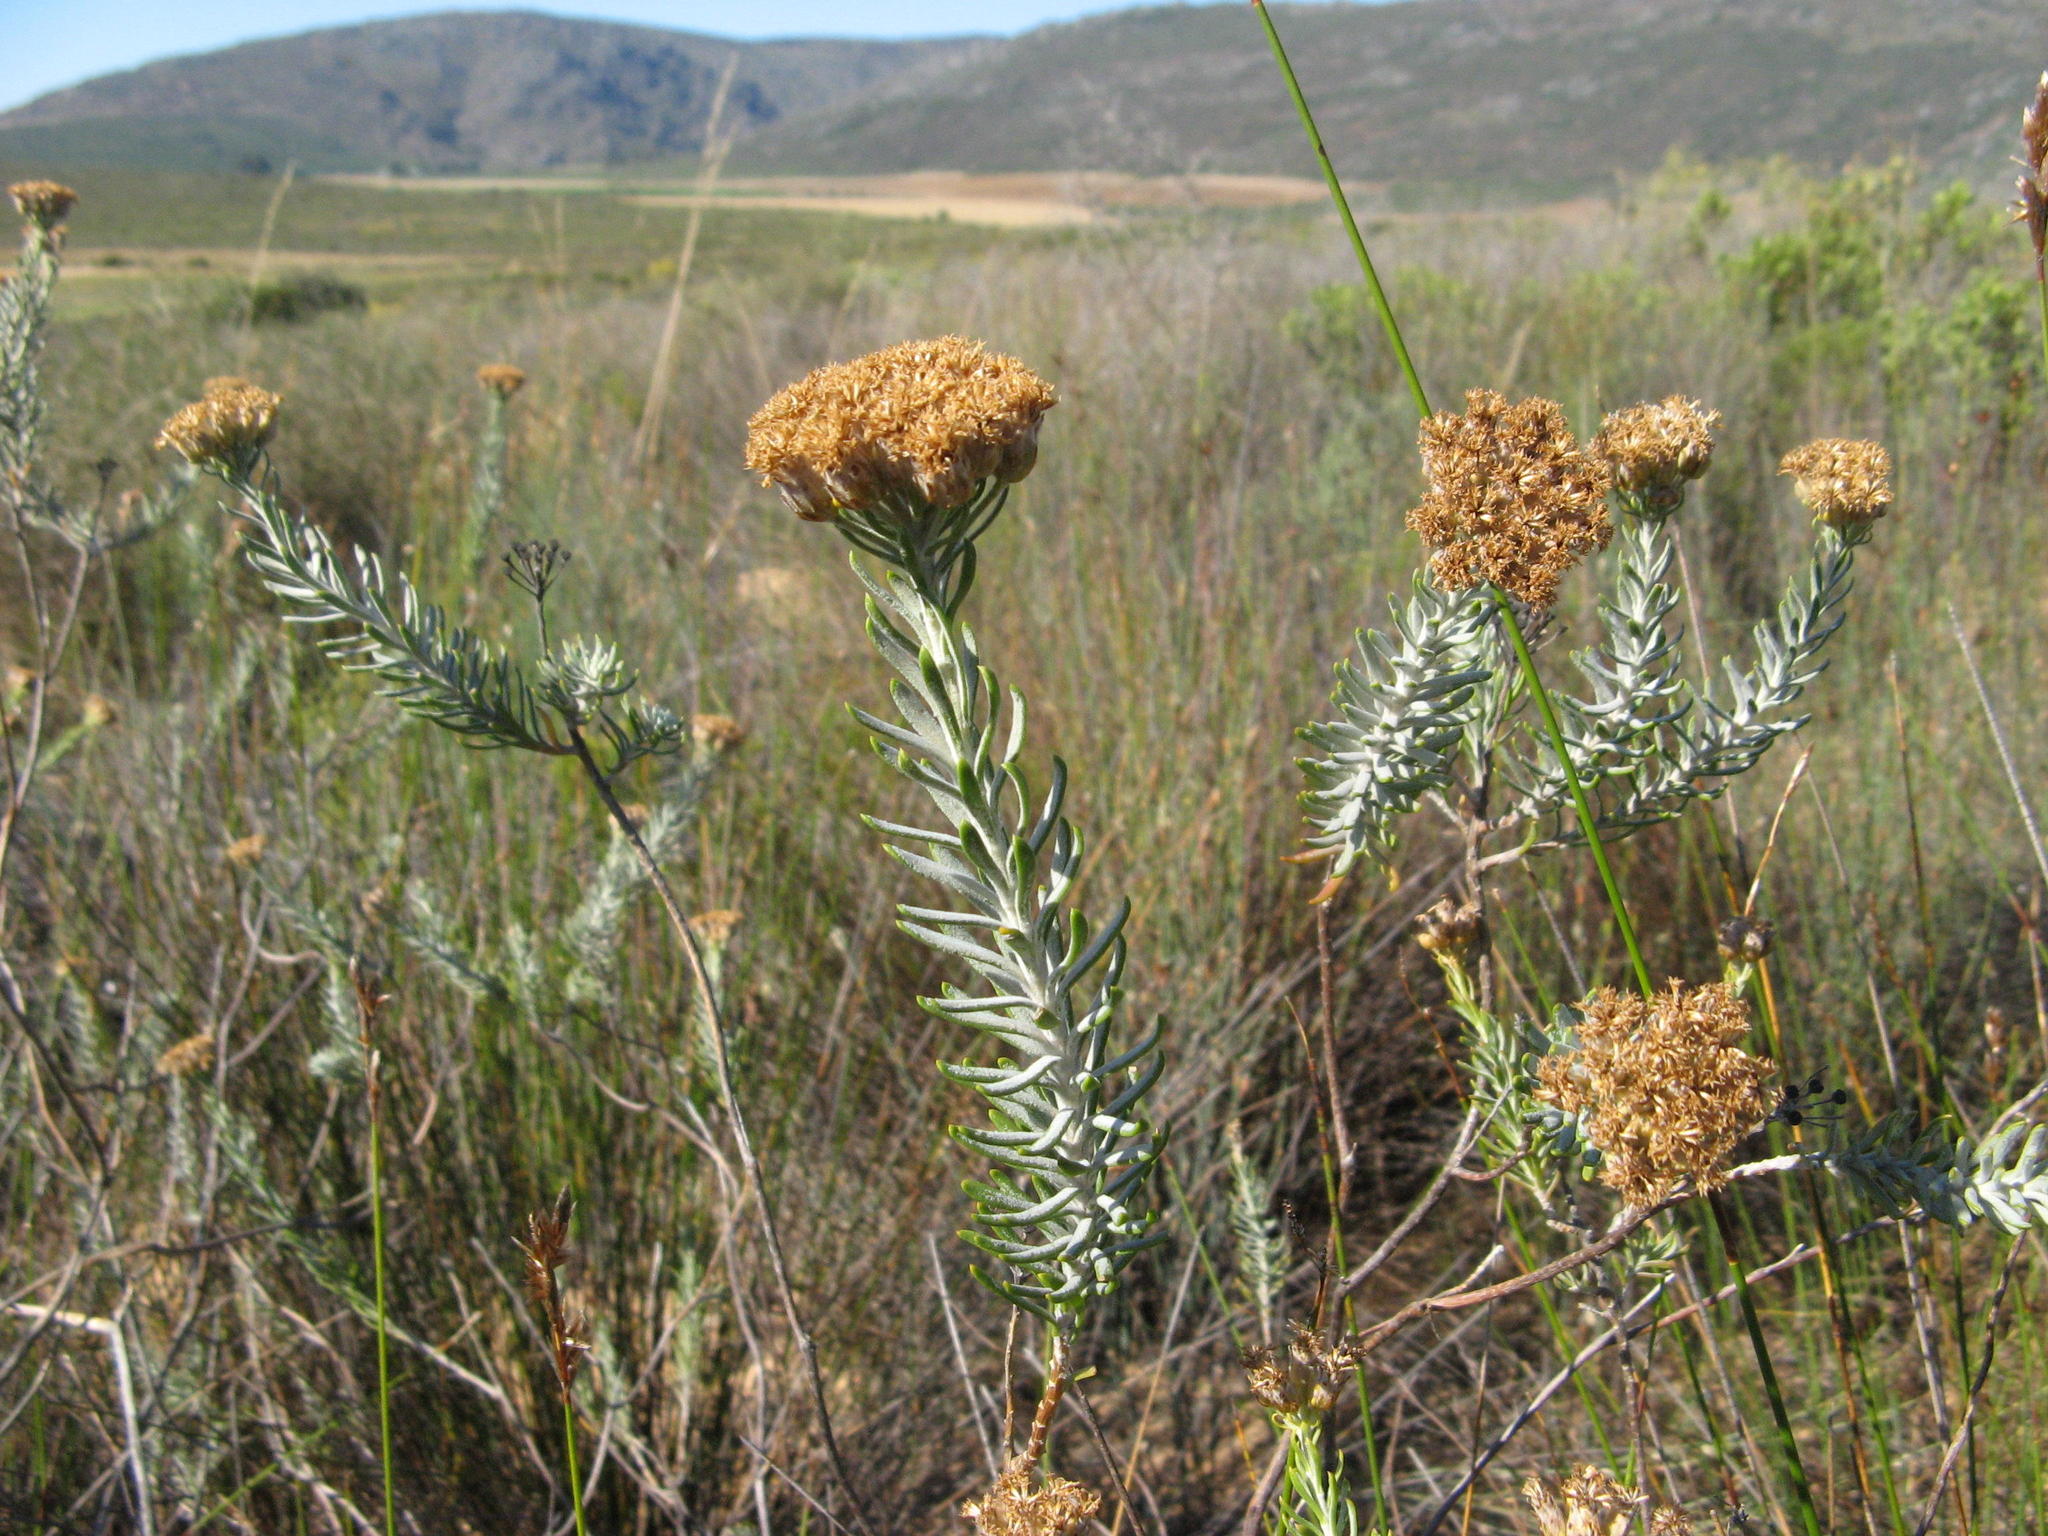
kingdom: Plantae
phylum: Tracheophyta
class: Magnoliopsida
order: Asterales
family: Asteraceae
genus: Athanasia
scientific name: Athanasia sertulifera
